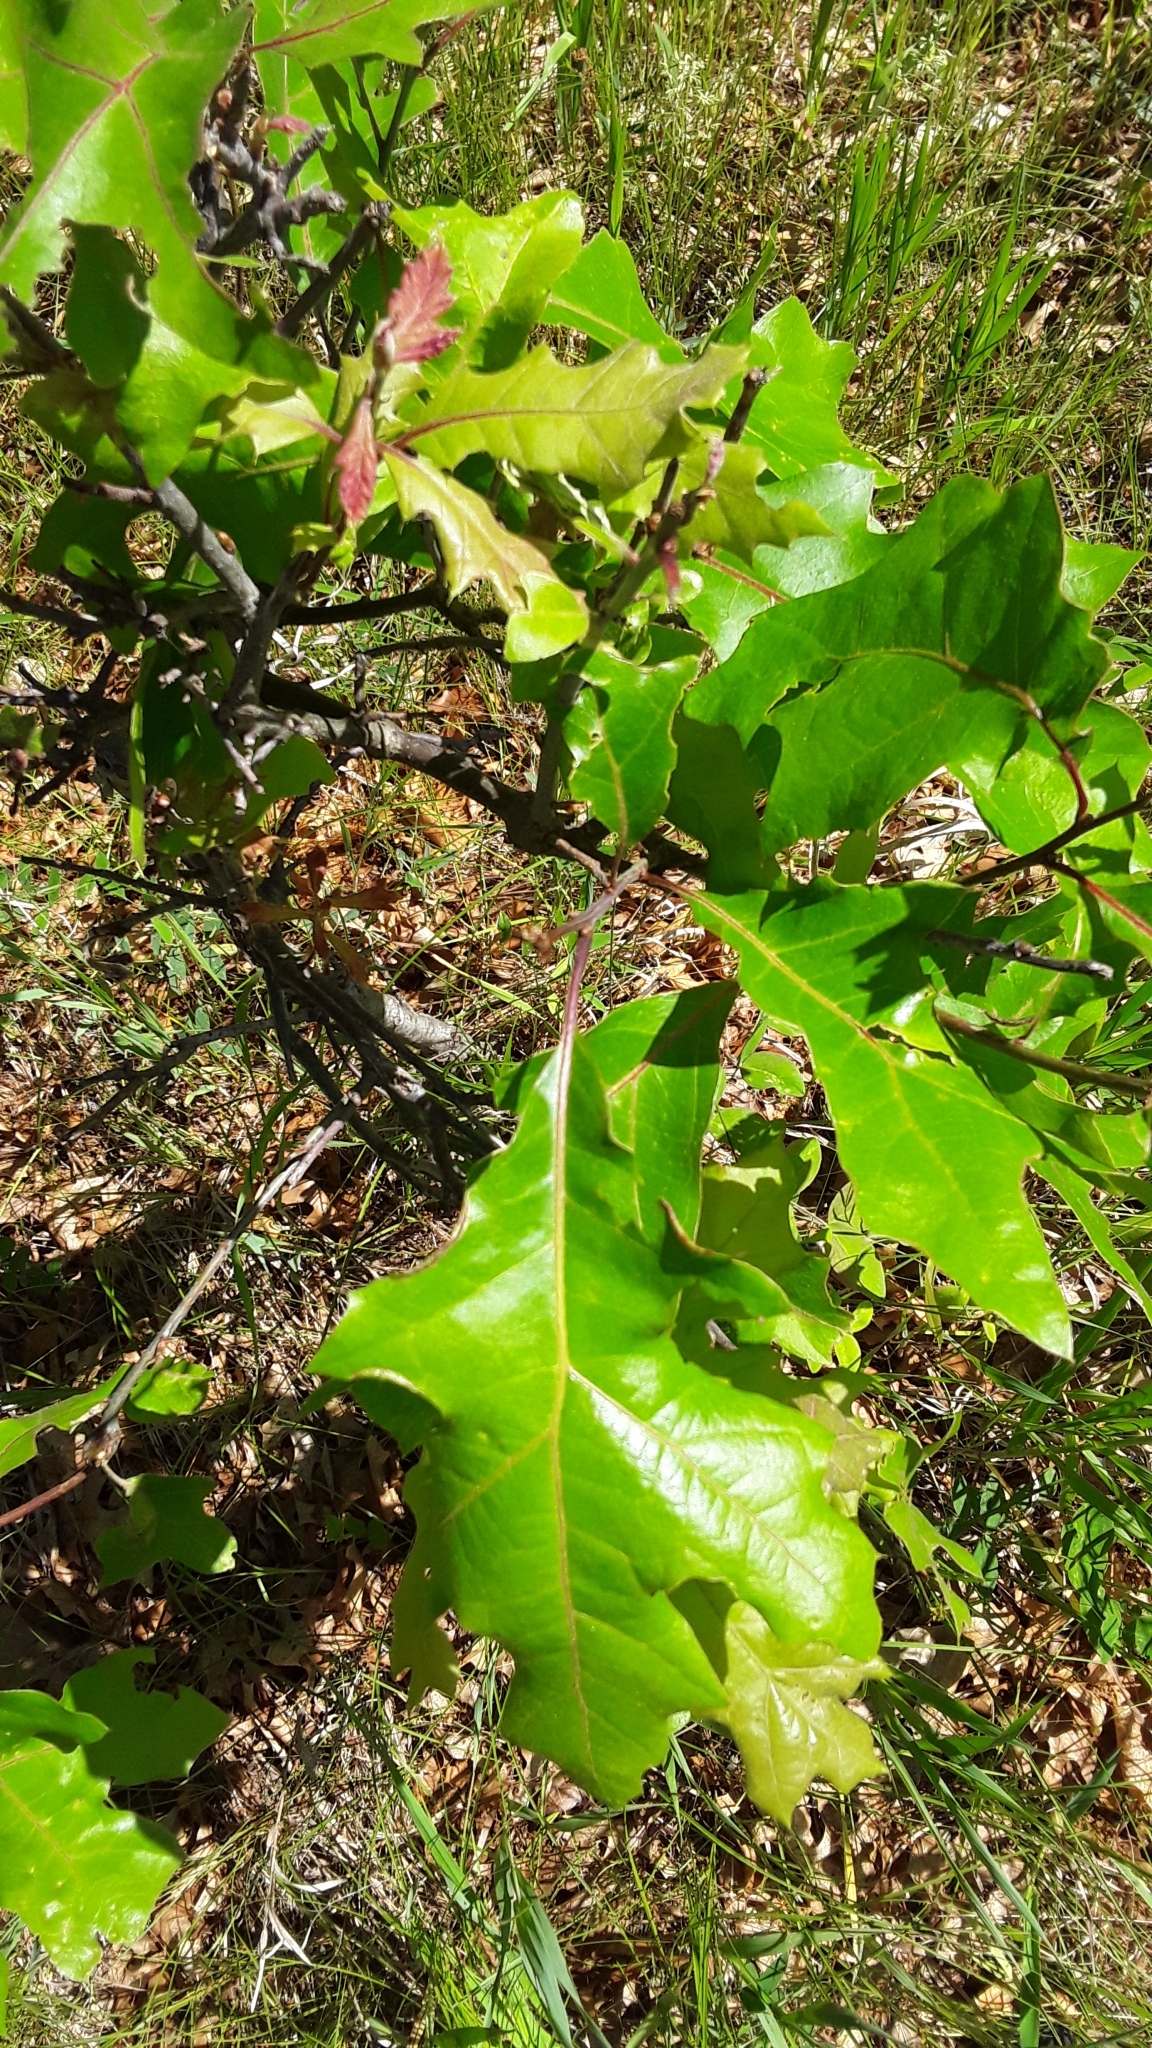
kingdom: Plantae
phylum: Tracheophyta
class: Magnoliopsida
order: Fagales
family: Fagaceae
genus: Quercus
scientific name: Quercus ellipsoidalis
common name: Hill's oak
